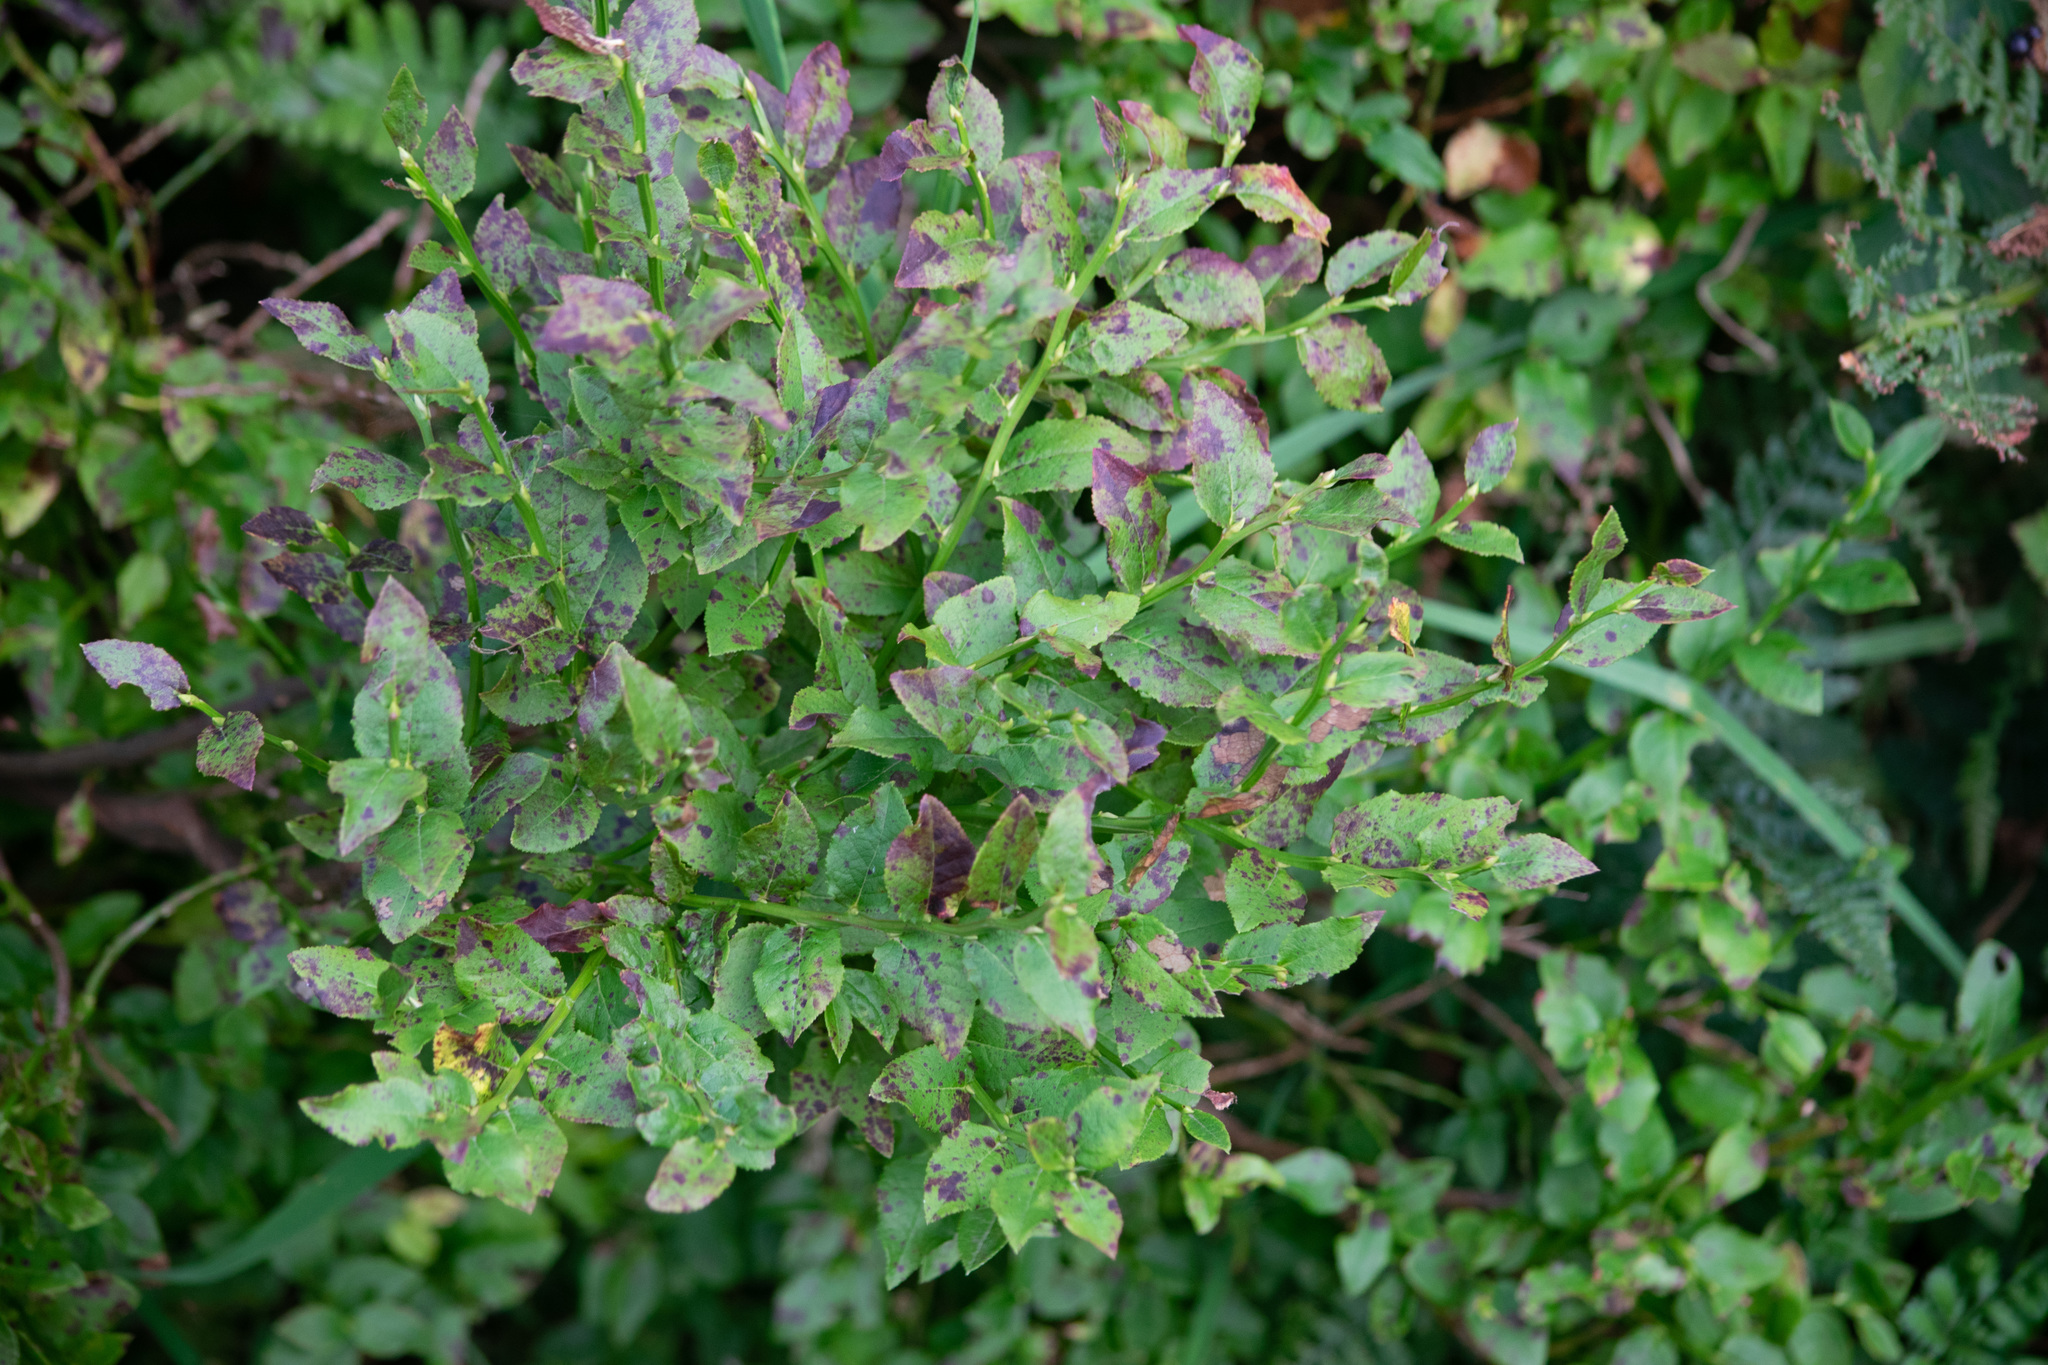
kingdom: Plantae
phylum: Tracheophyta
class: Magnoliopsida
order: Ericales
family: Ericaceae
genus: Vaccinium
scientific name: Vaccinium myrtillus
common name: Bilberry
